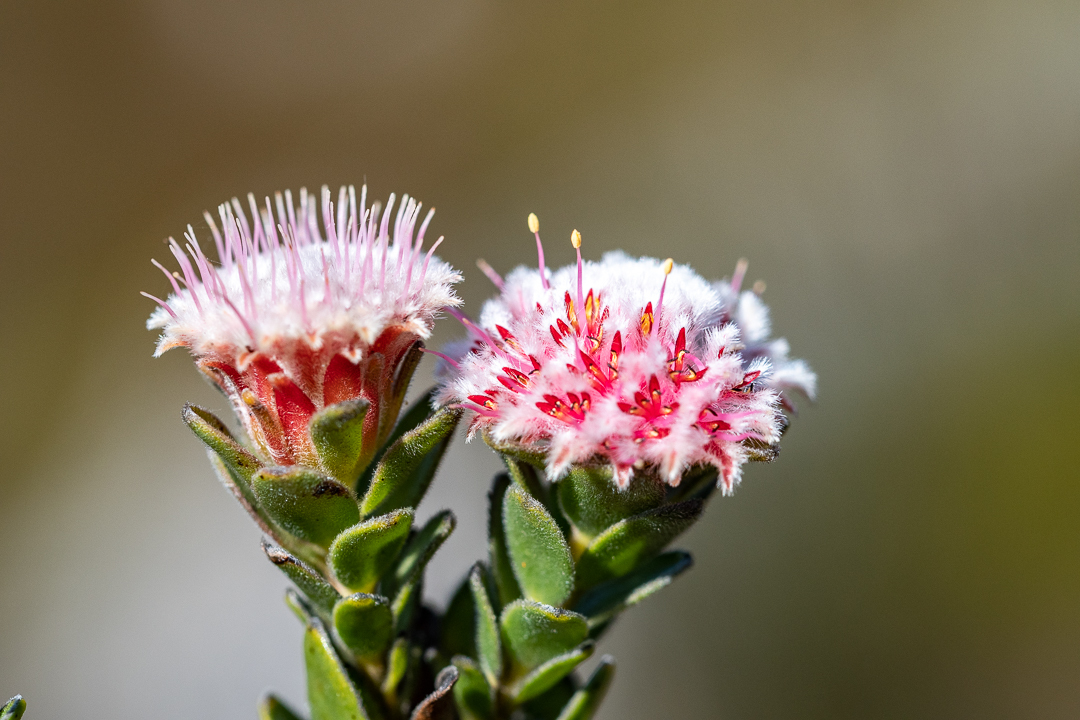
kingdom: Plantae
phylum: Tracheophyta
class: Magnoliopsida
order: Proteales
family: Proteaceae
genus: Diastella
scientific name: Diastella thymelaeoides
